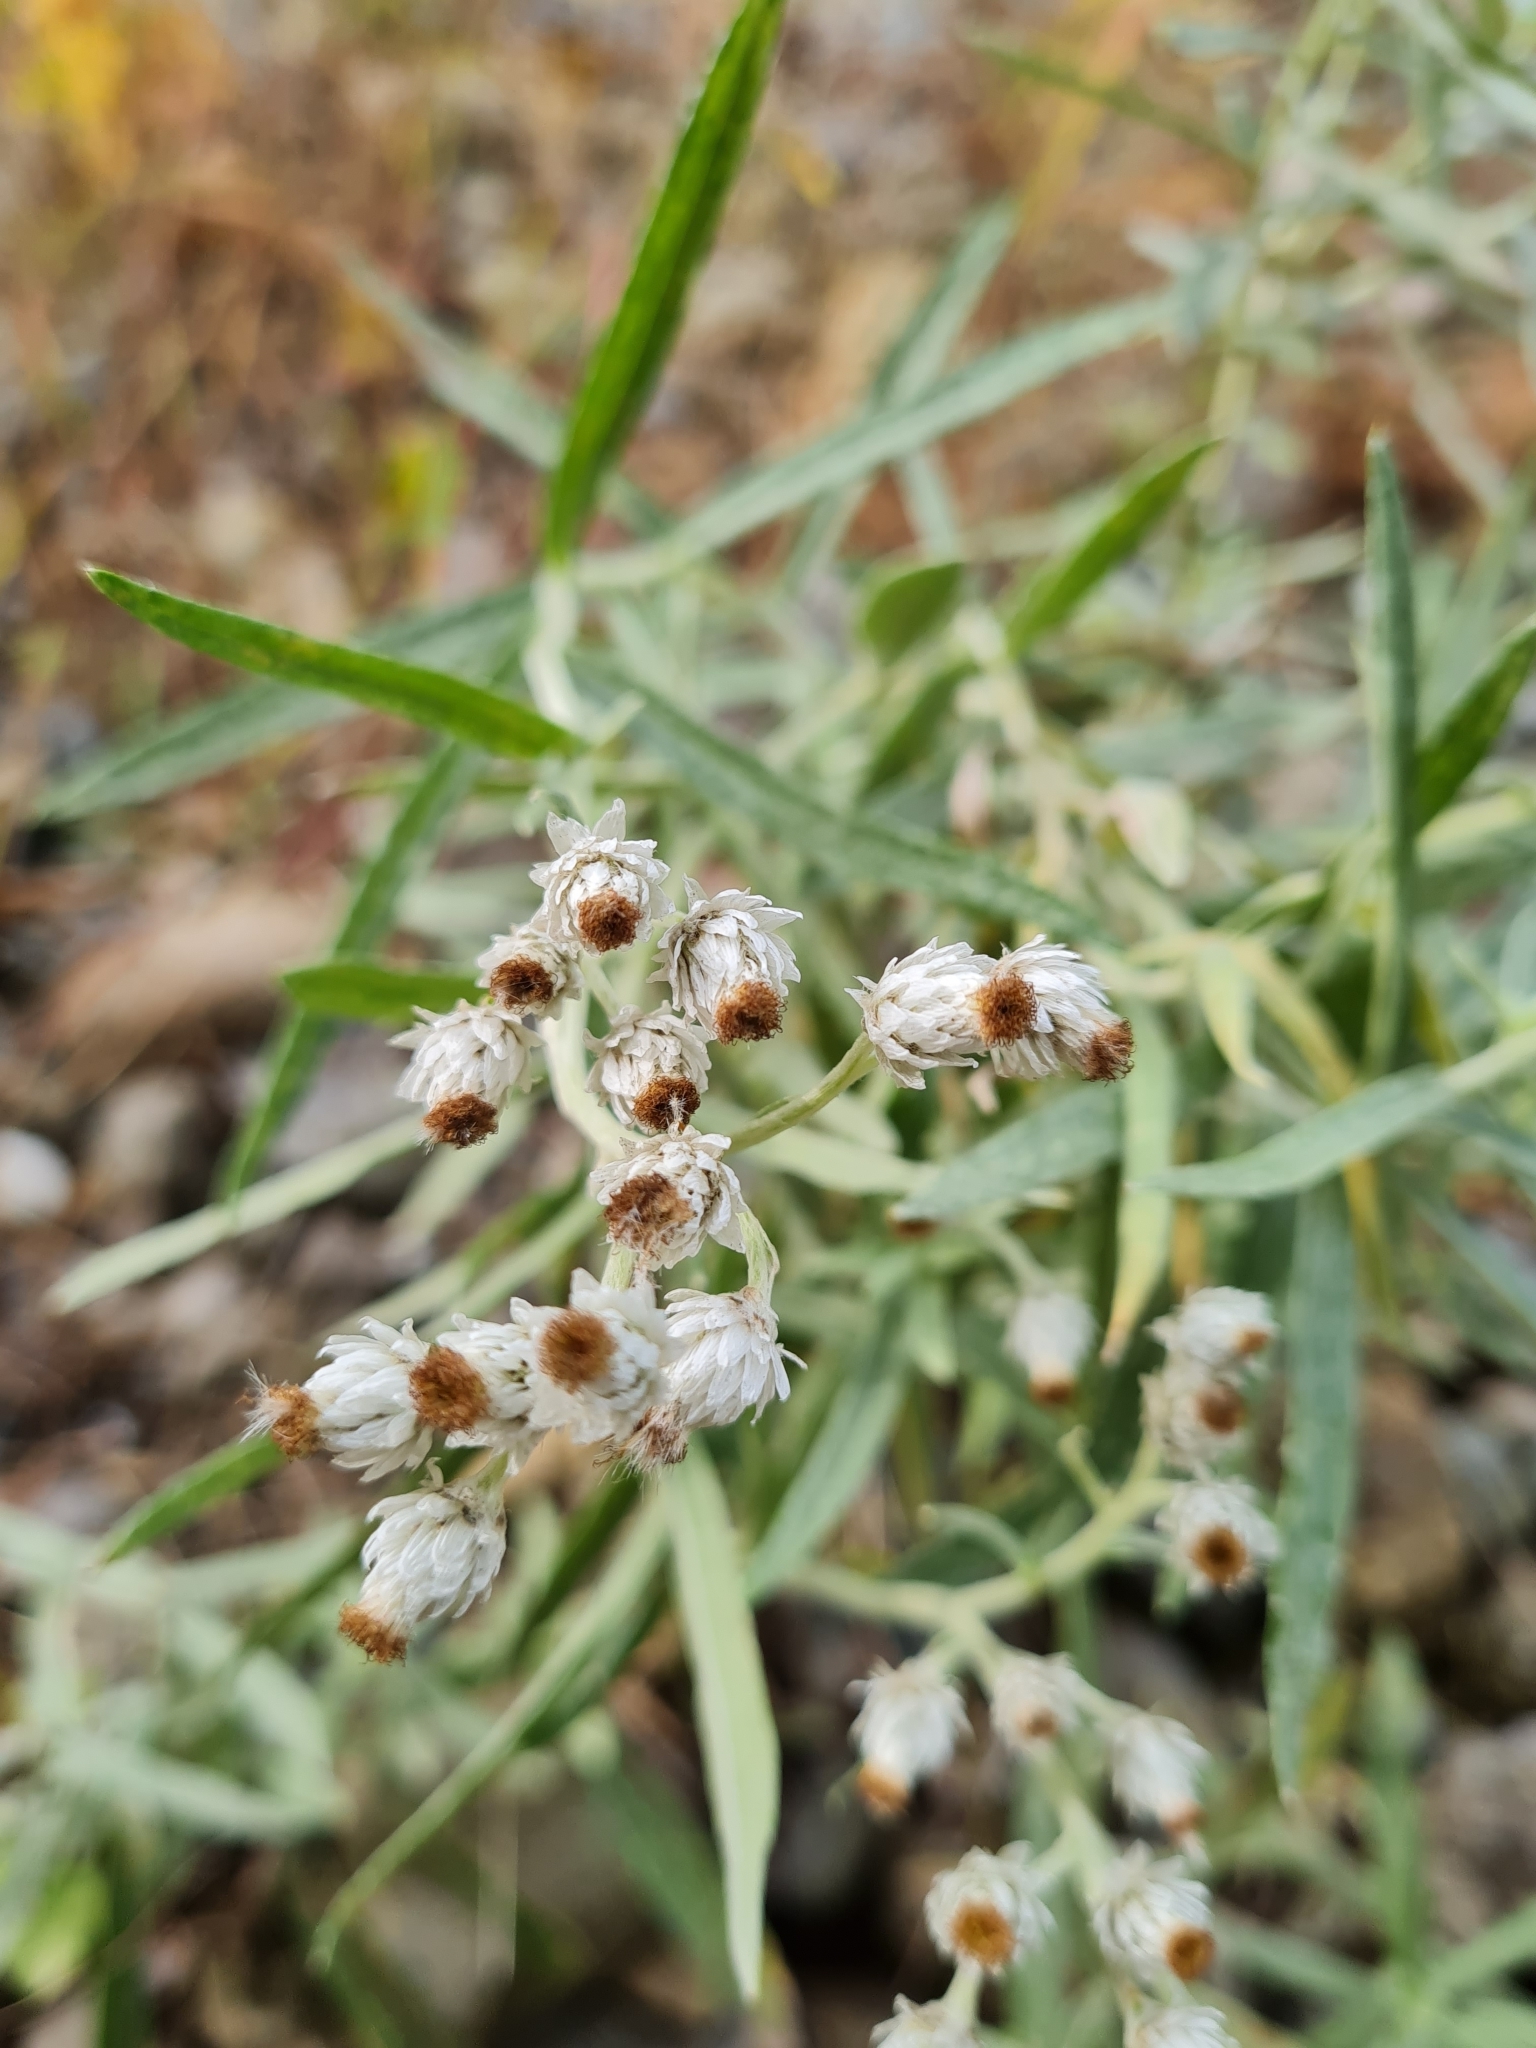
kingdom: Plantae
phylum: Tracheophyta
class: Magnoliopsida
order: Asterales
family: Asteraceae
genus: Anaphalis
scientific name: Anaphalis margaritacea
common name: Pearly everlasting
